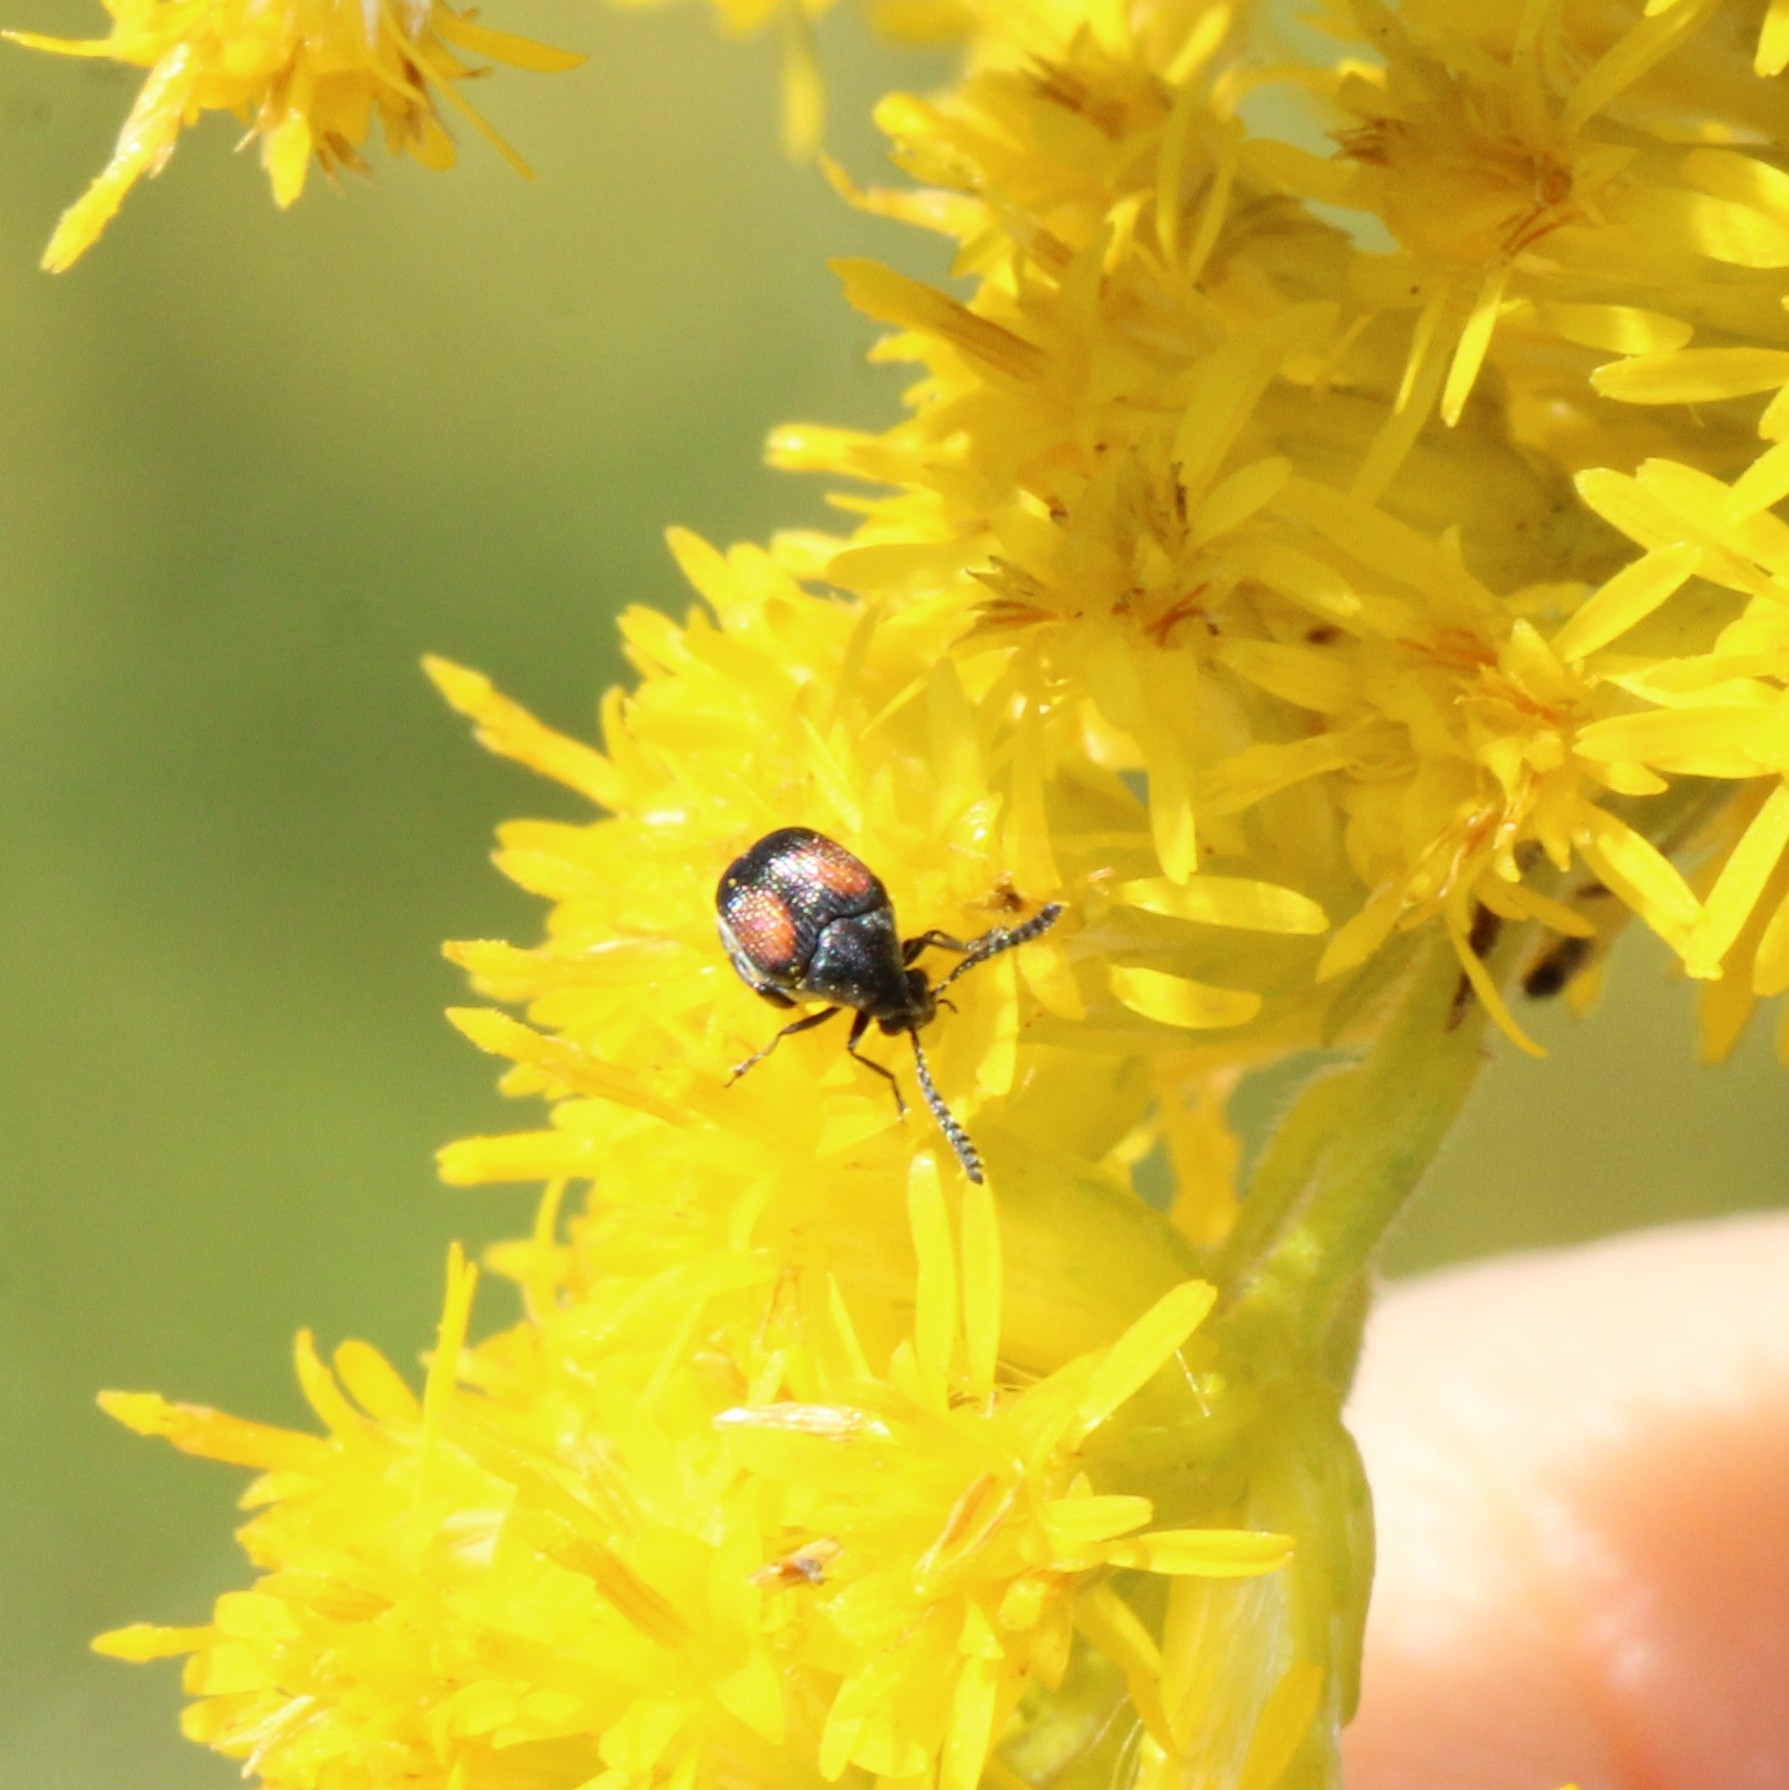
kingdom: Animalia
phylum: Arthropoda
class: Insecta
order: Coleoptera
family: Chrysomelidae
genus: Megacerus
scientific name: Megacerus discoidus
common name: Red megacerus
